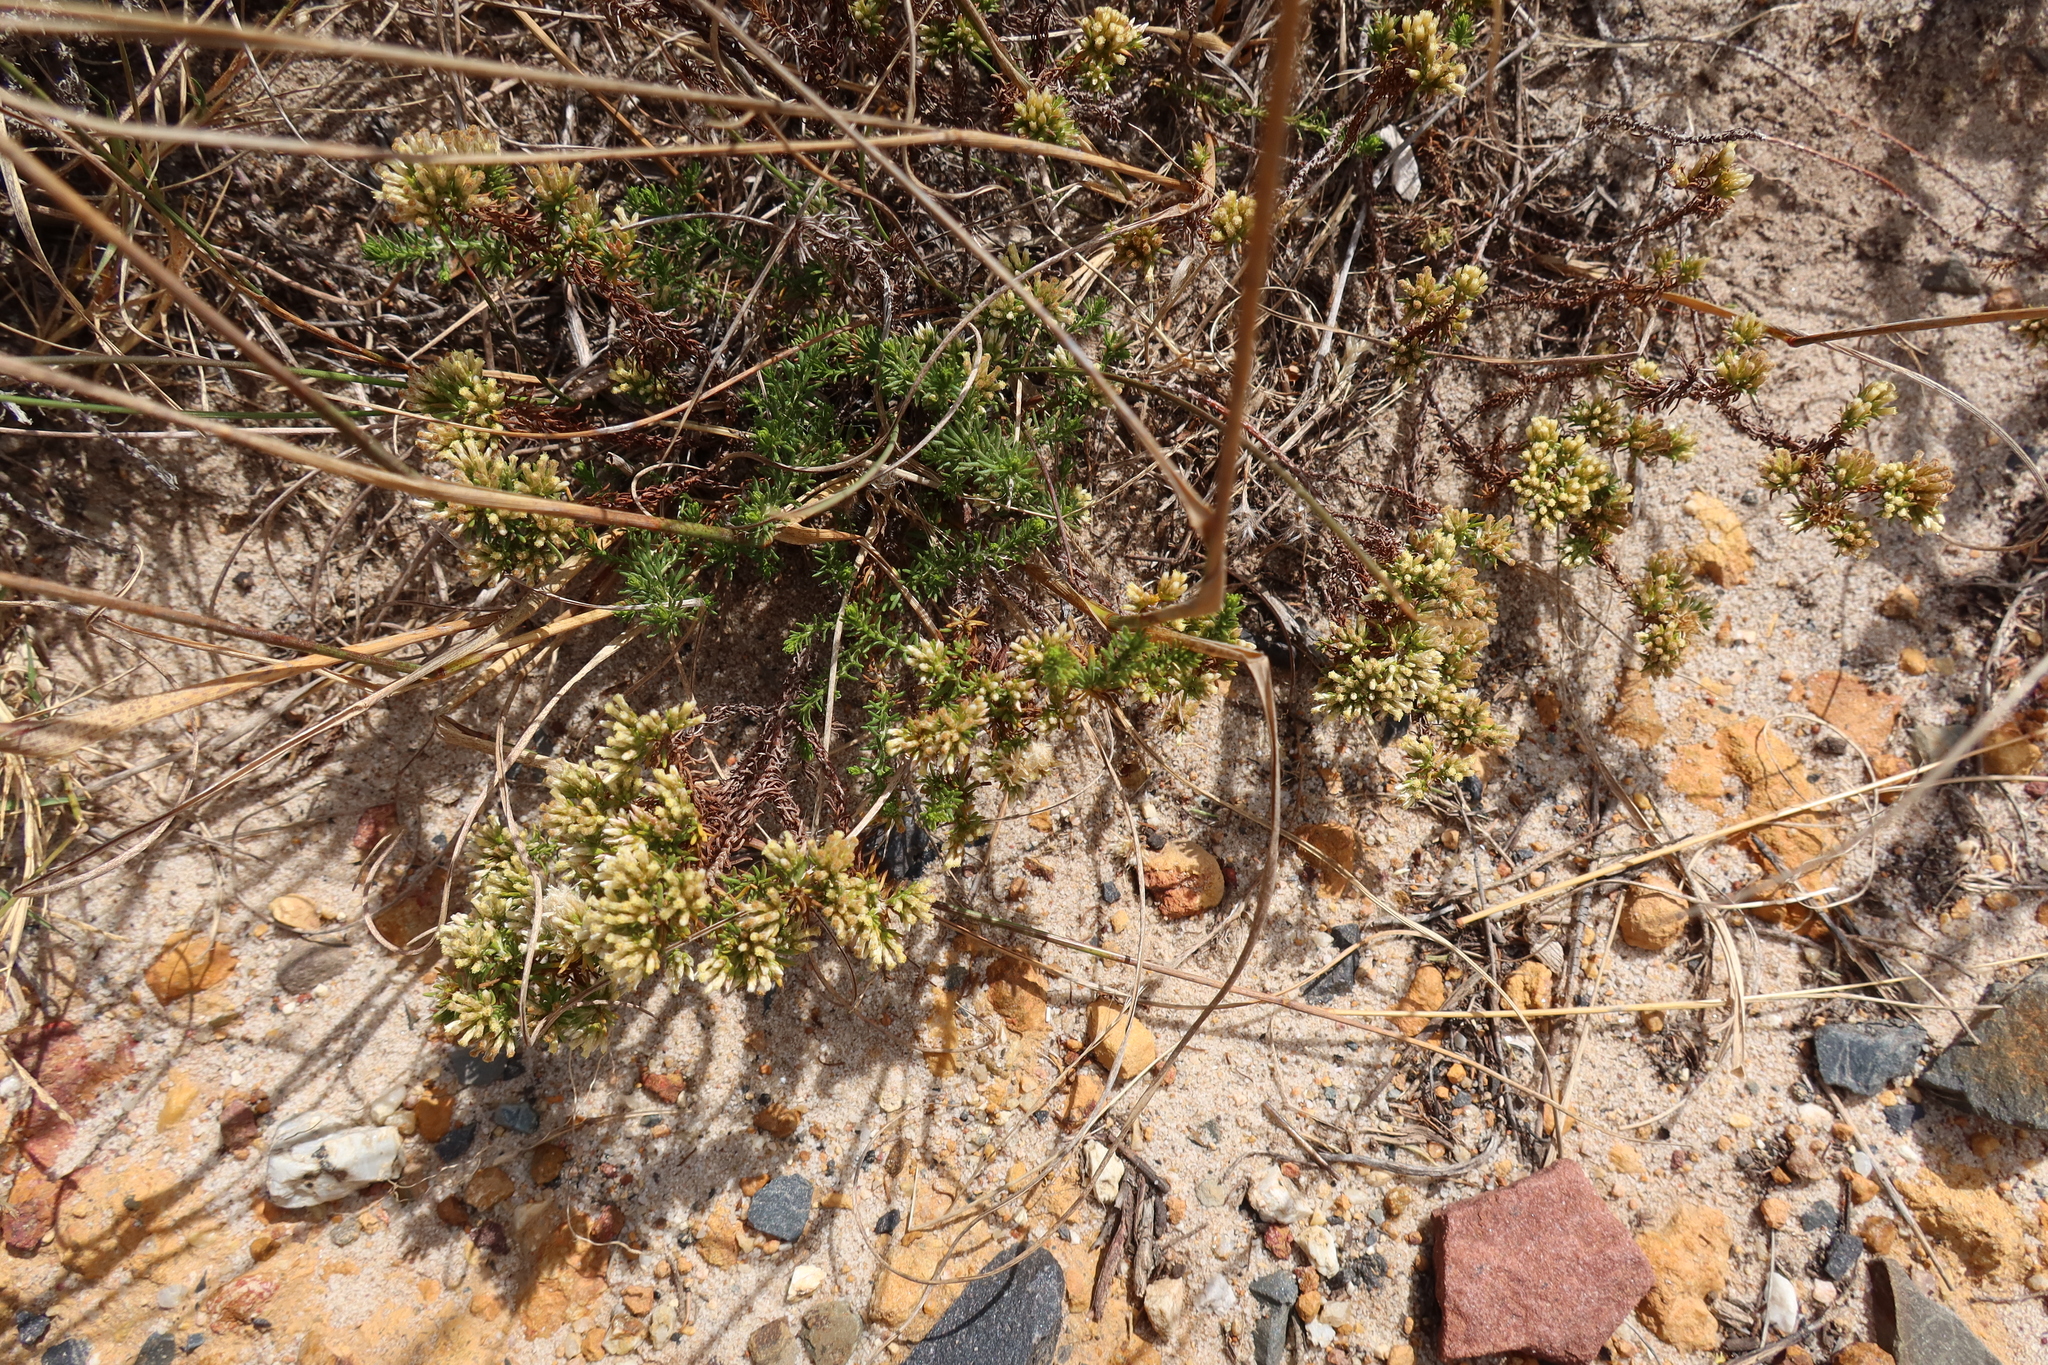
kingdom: Plantae
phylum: Tracheophyta
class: Magnoliopsida
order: Asterales
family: Asteraceae
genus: Helichrysum
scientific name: Helichrysum niveum
